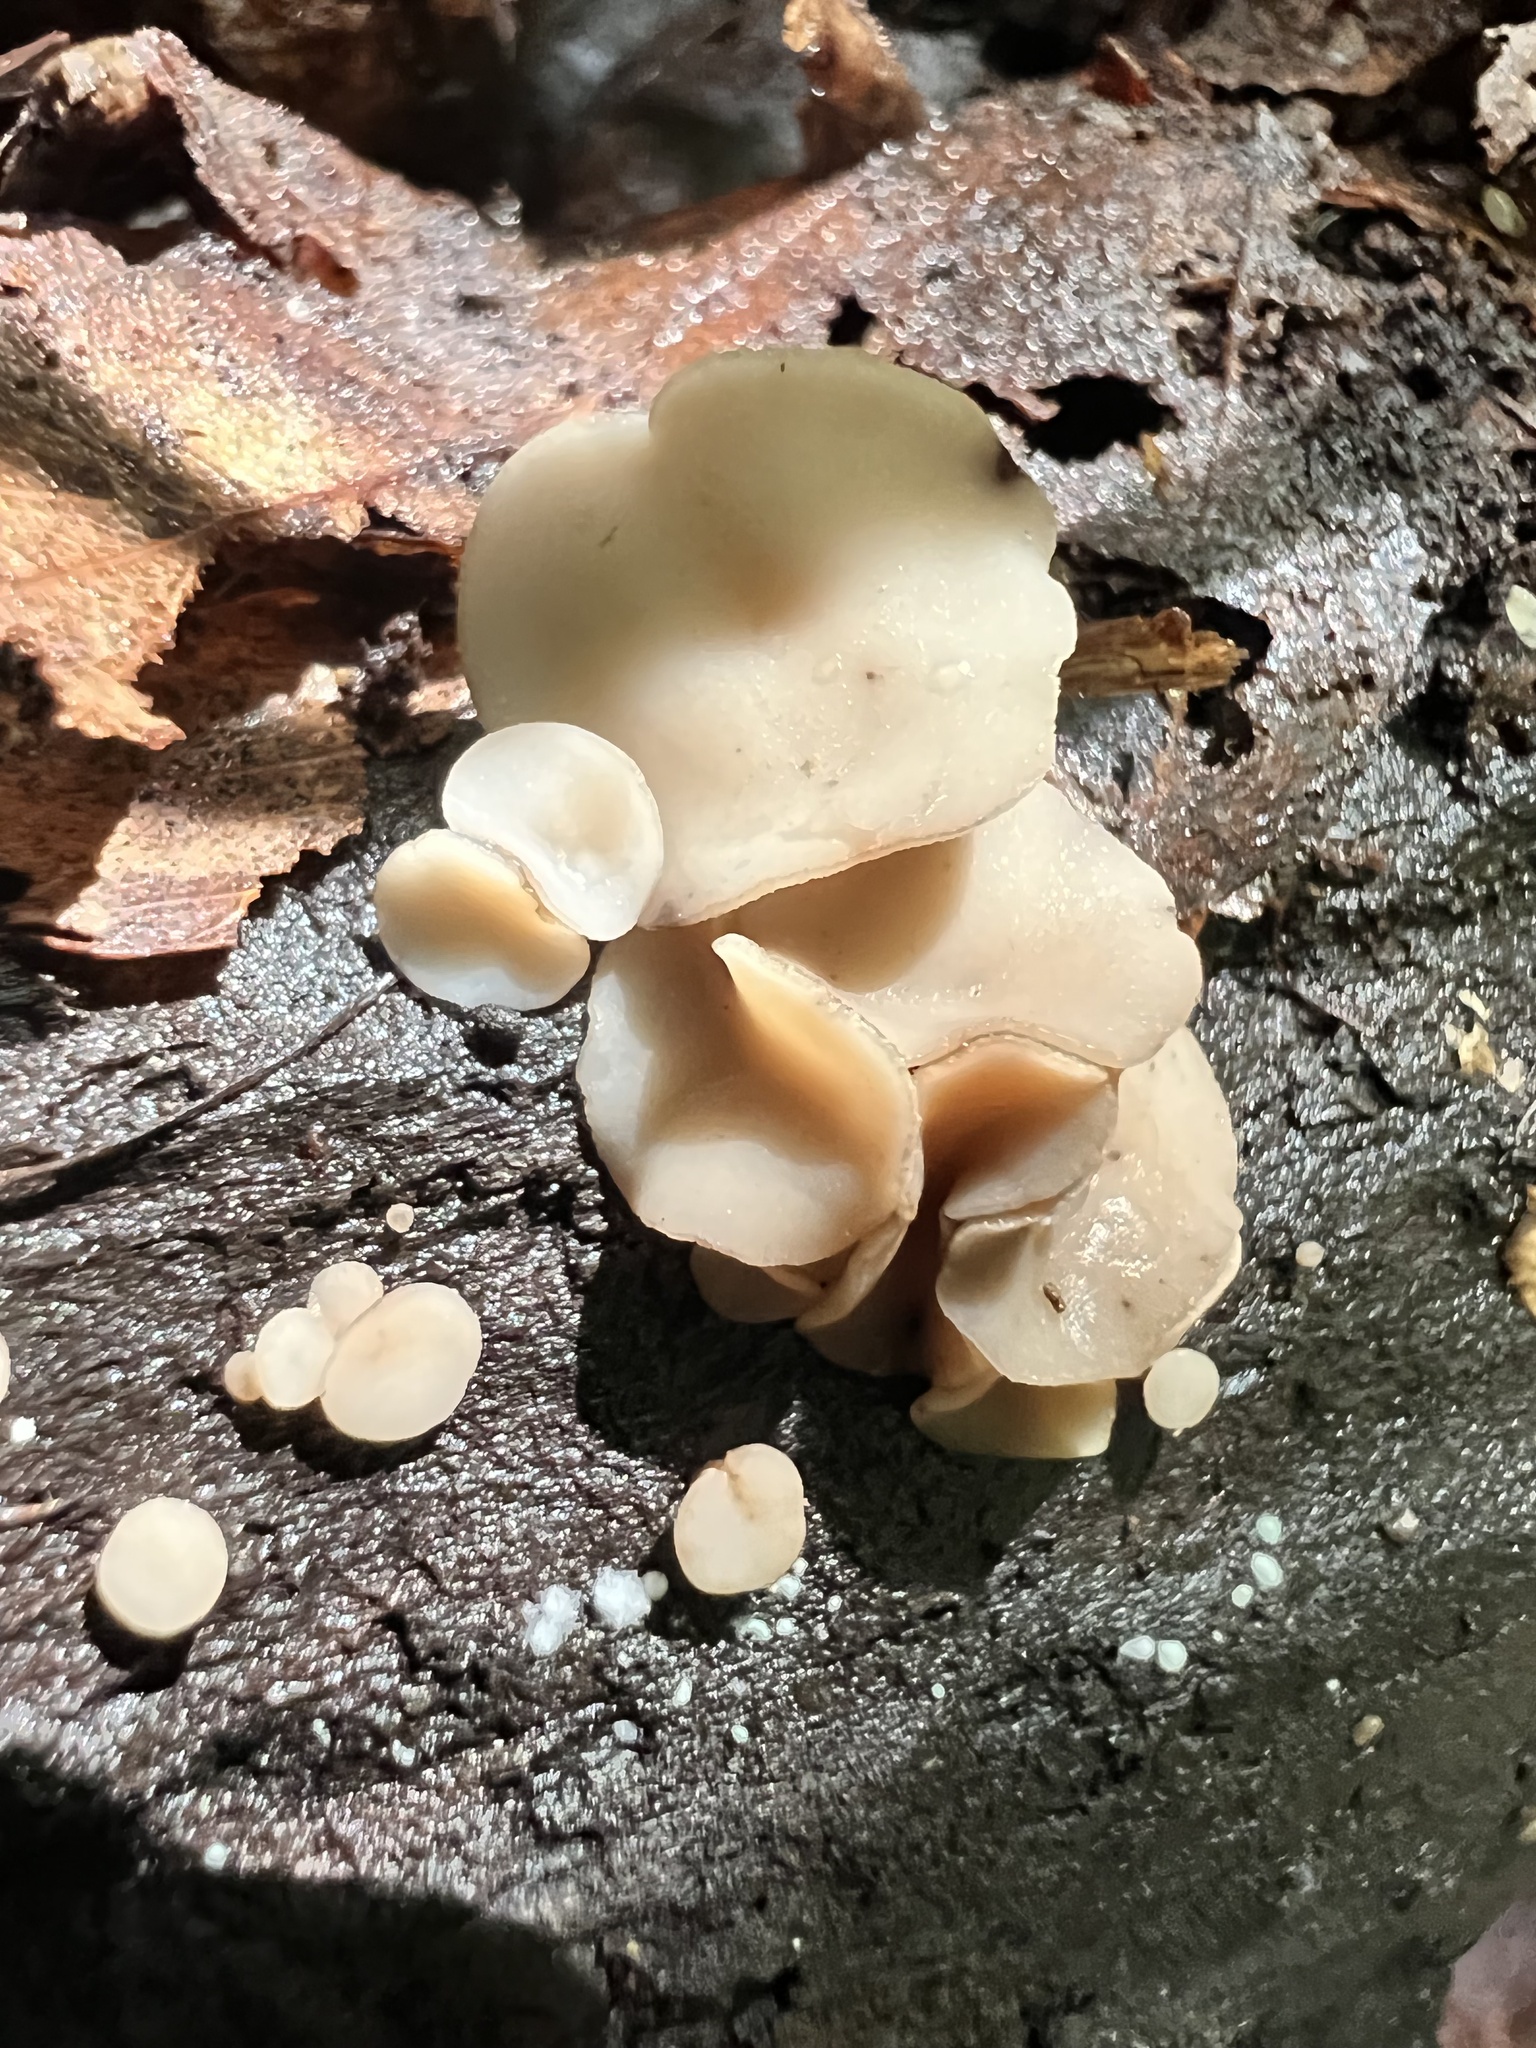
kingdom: Fungi
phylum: Ascomycota
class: Leotiomycetes
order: Helotiales
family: Helotiaceae
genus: Tatraea
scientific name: Tatraea macrospora
